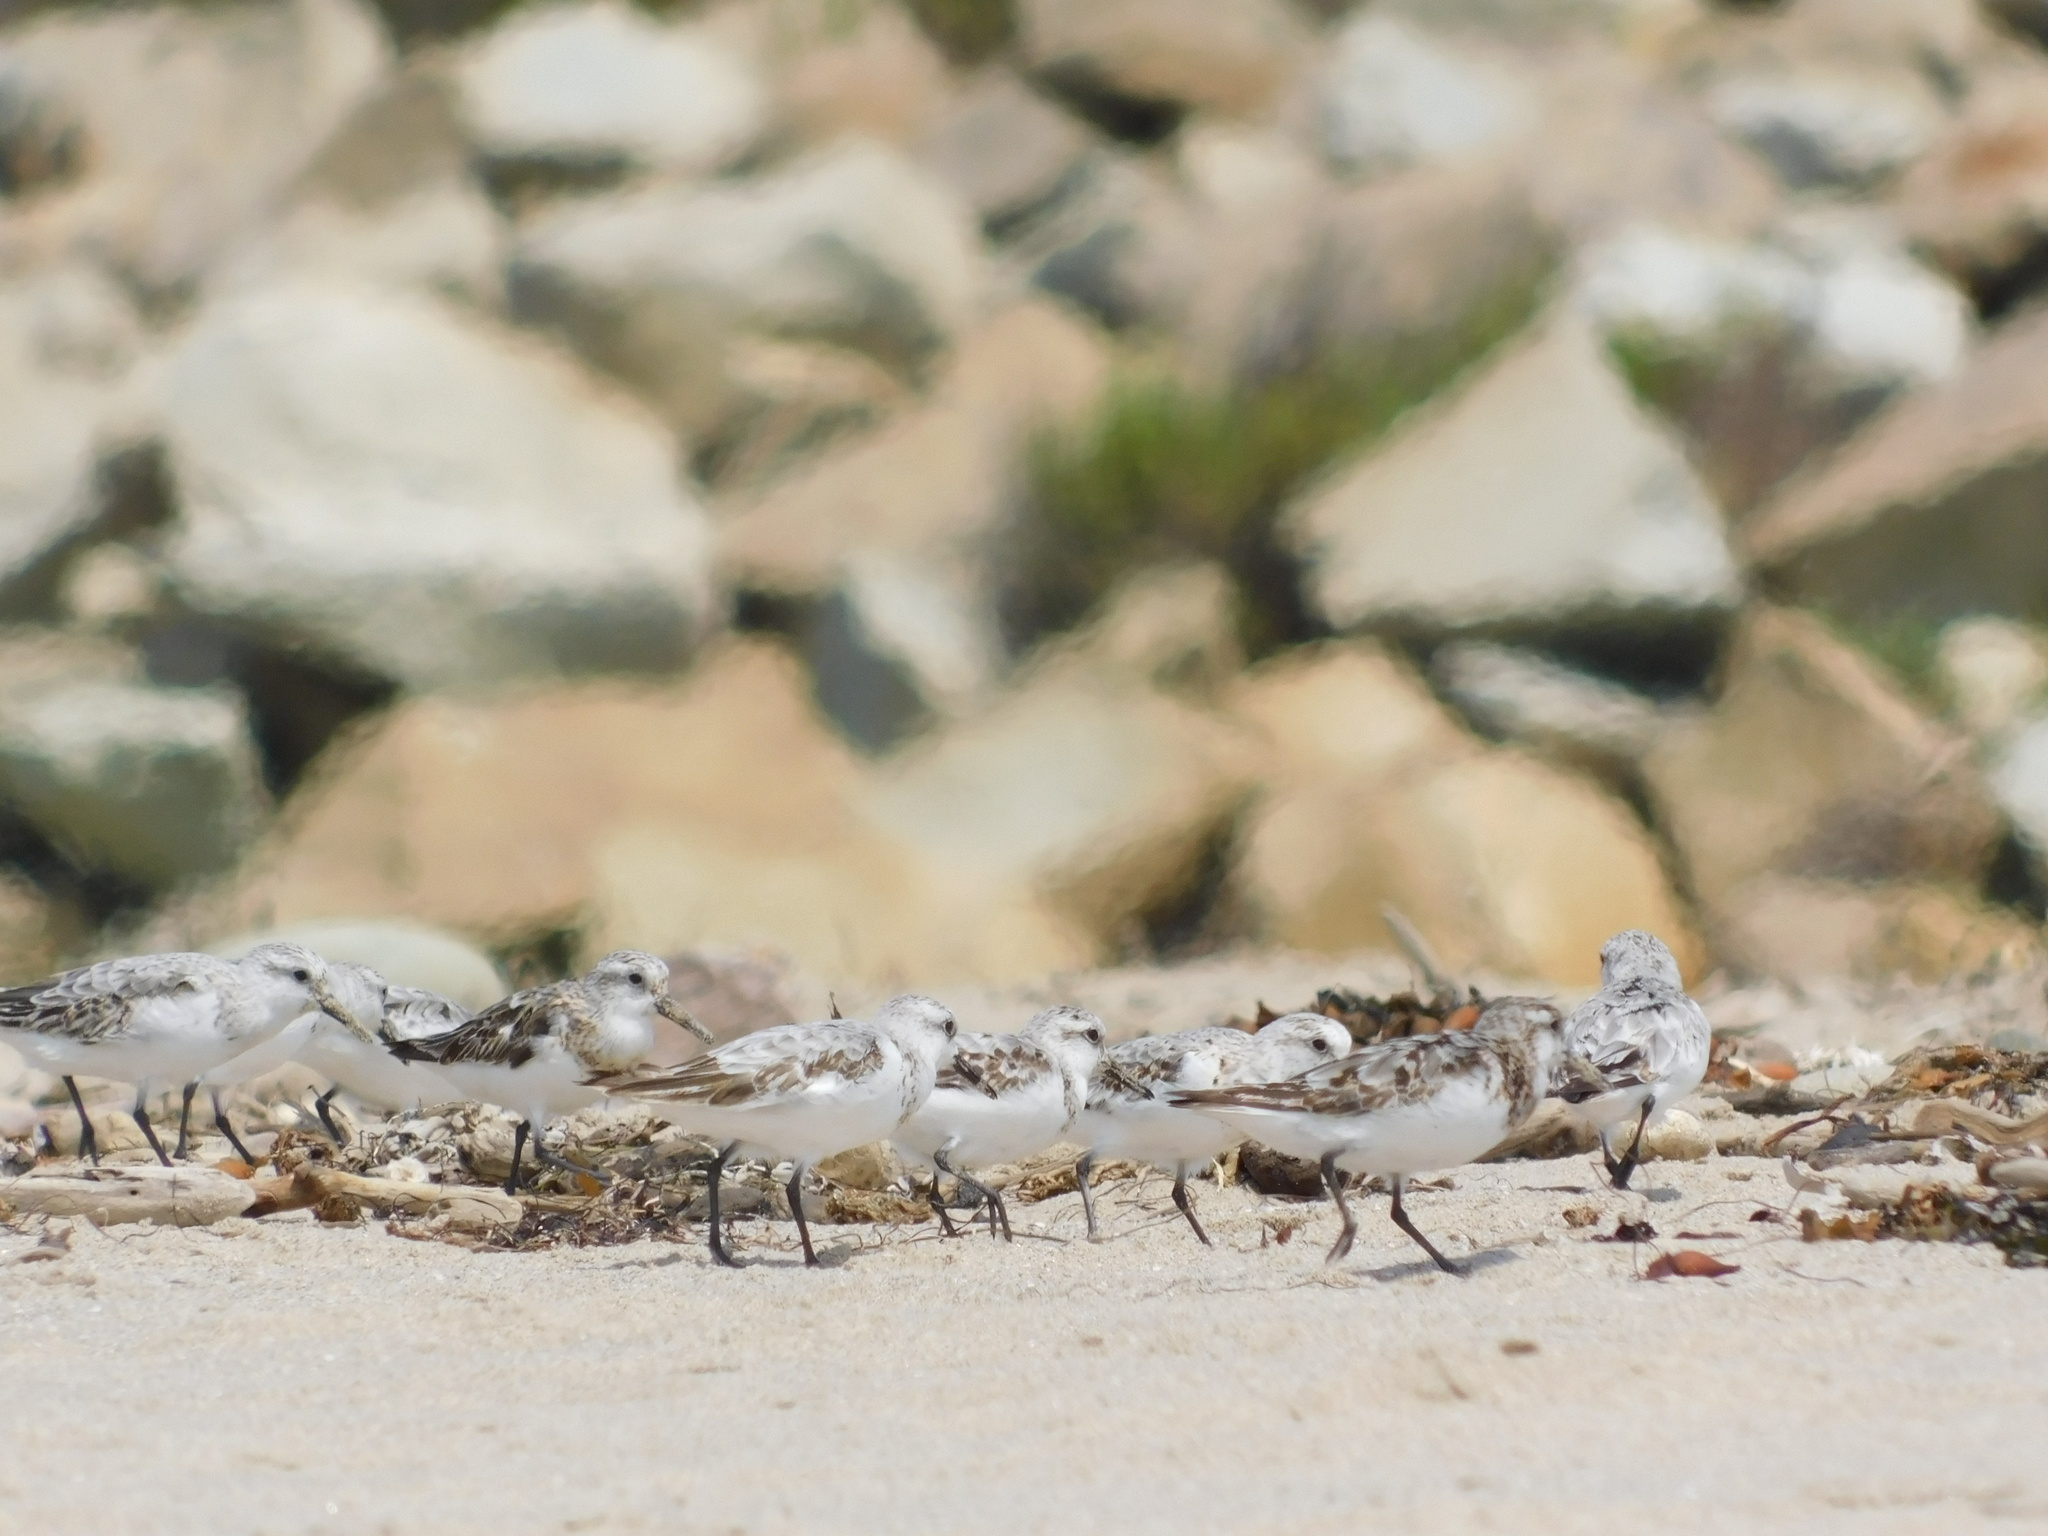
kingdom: Animalia
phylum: Chordata
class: Aves
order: Charadriiformes
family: Scolopacidae
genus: Calidris
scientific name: Calidris alba
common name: Sanderling
